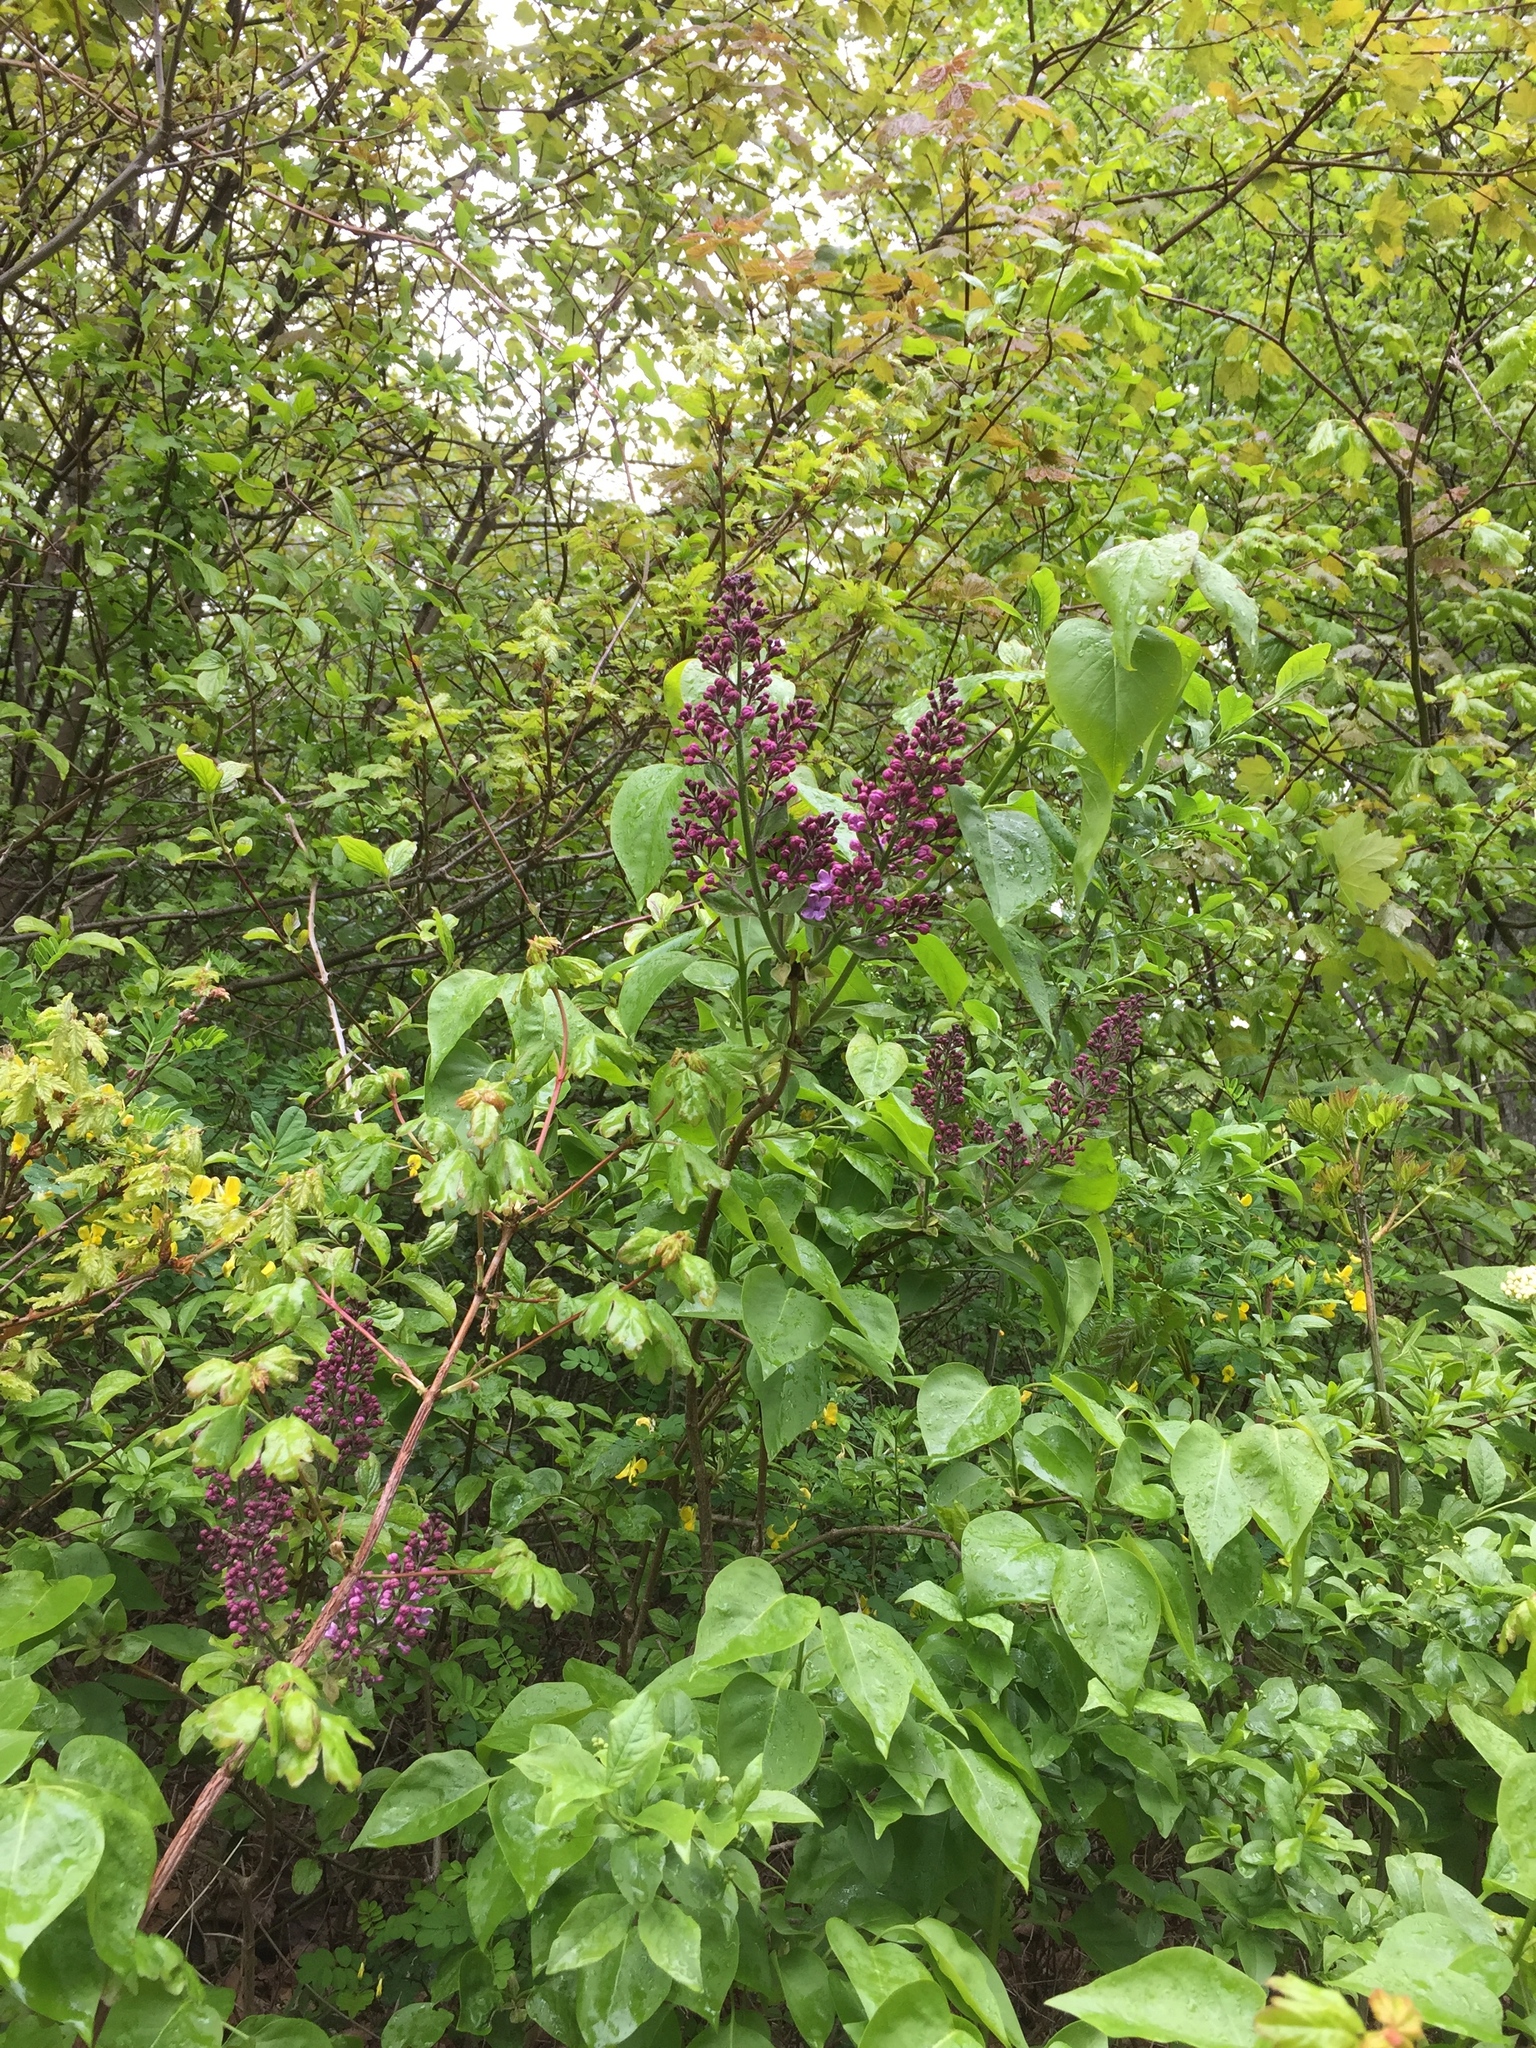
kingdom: Plantae
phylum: Tracheophyta
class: Magnoliopsida
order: Lamiales
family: Oleaceae
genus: Syringa
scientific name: Syringa vulgaris
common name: Common lilac
